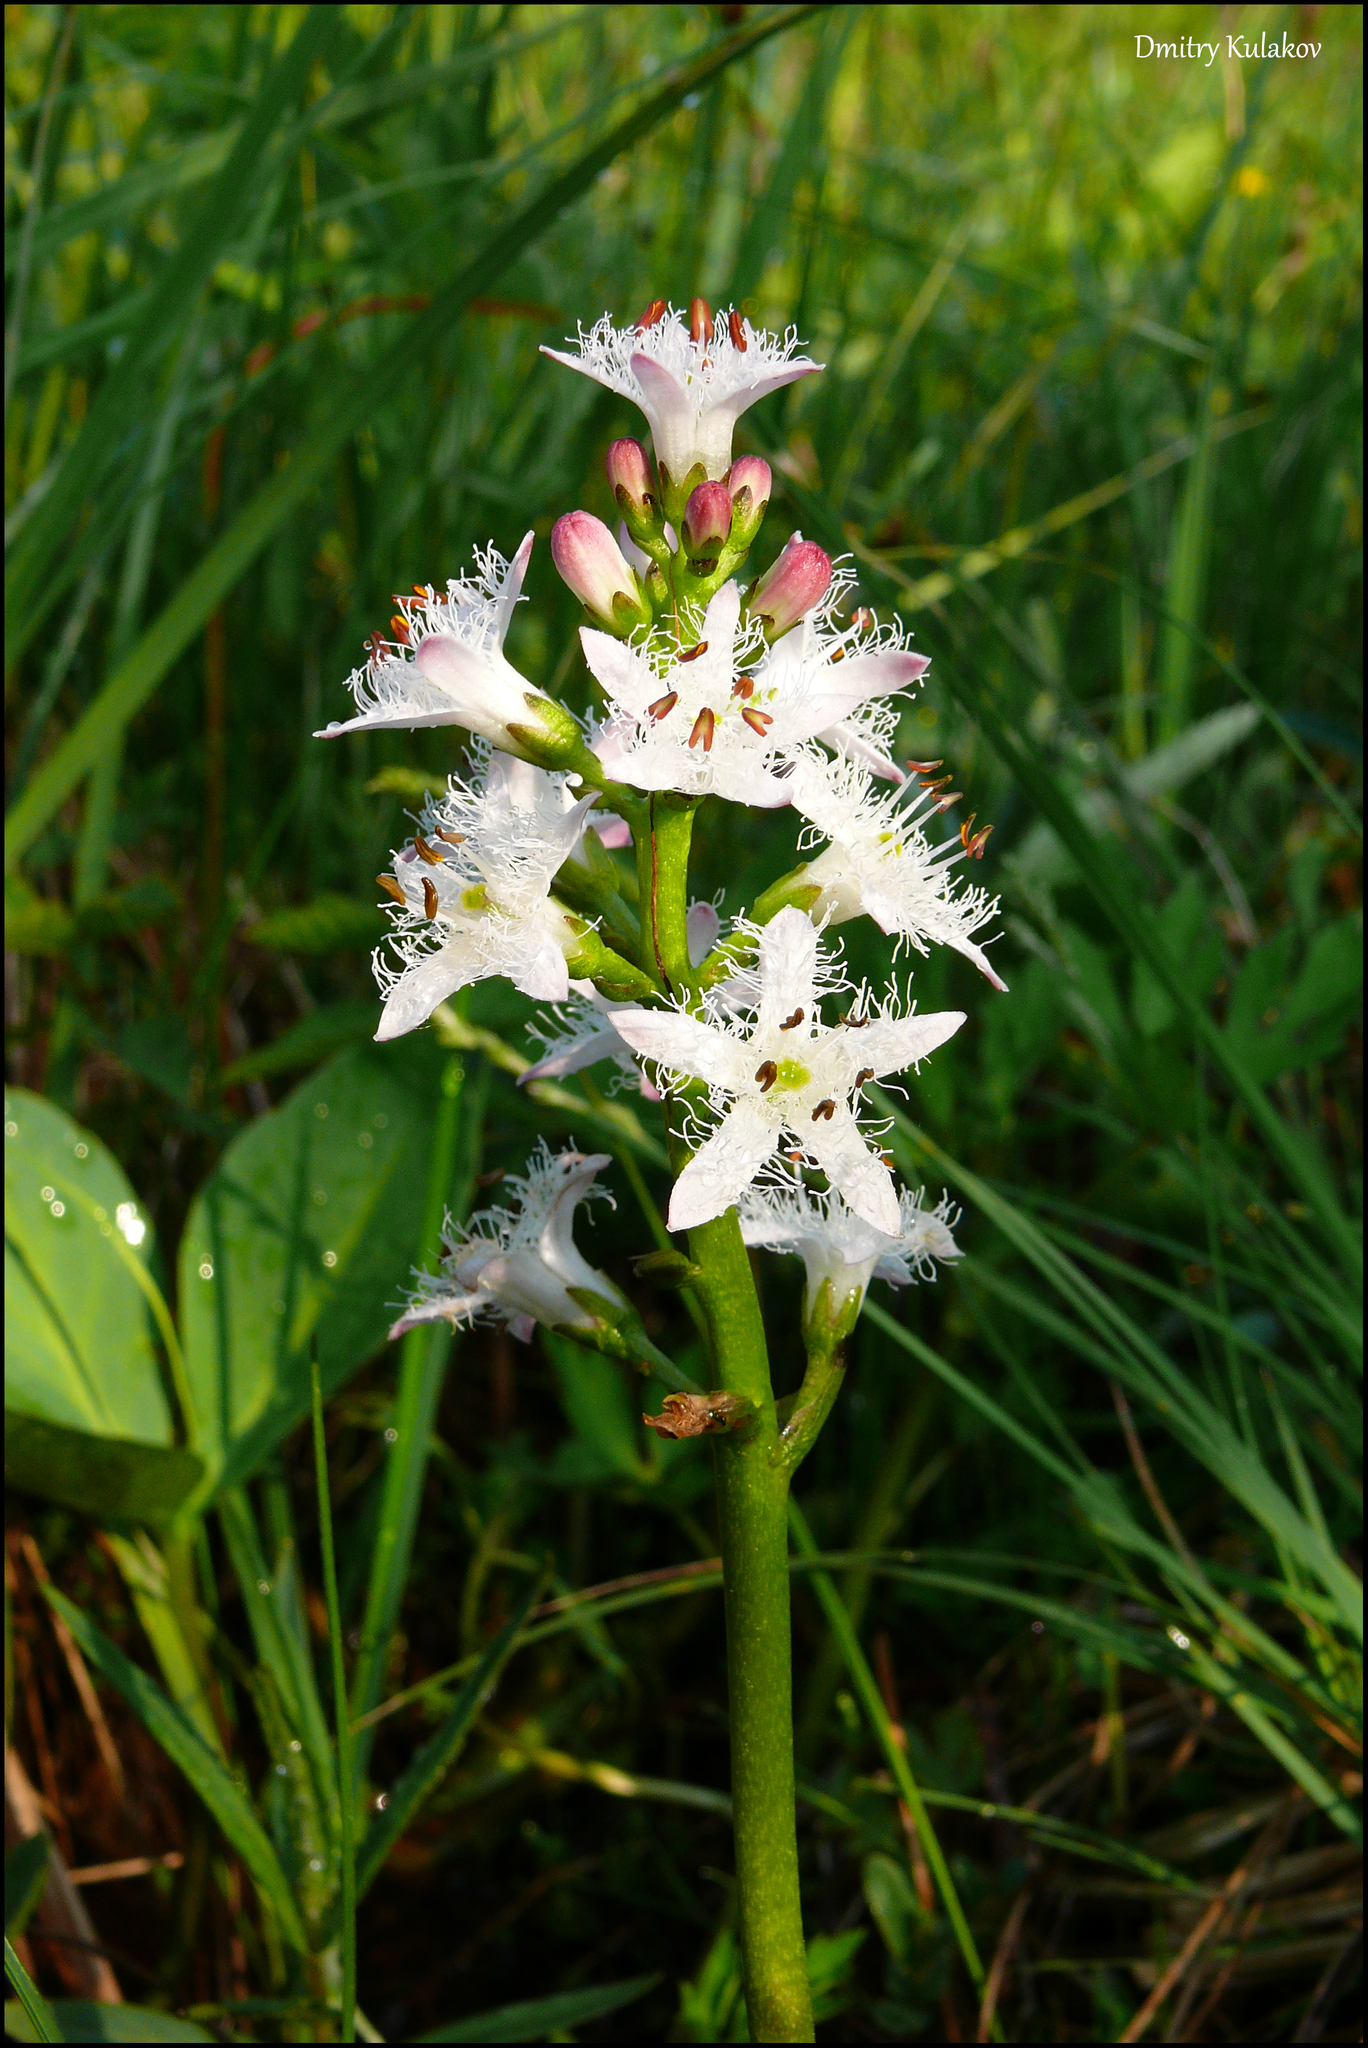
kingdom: Plantae
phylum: Tracheophyta
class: Magnoliopsida
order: Asterales
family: Menyanthaceae
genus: Menyanthes
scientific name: Menyanthes trifoliata
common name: Bogbean
